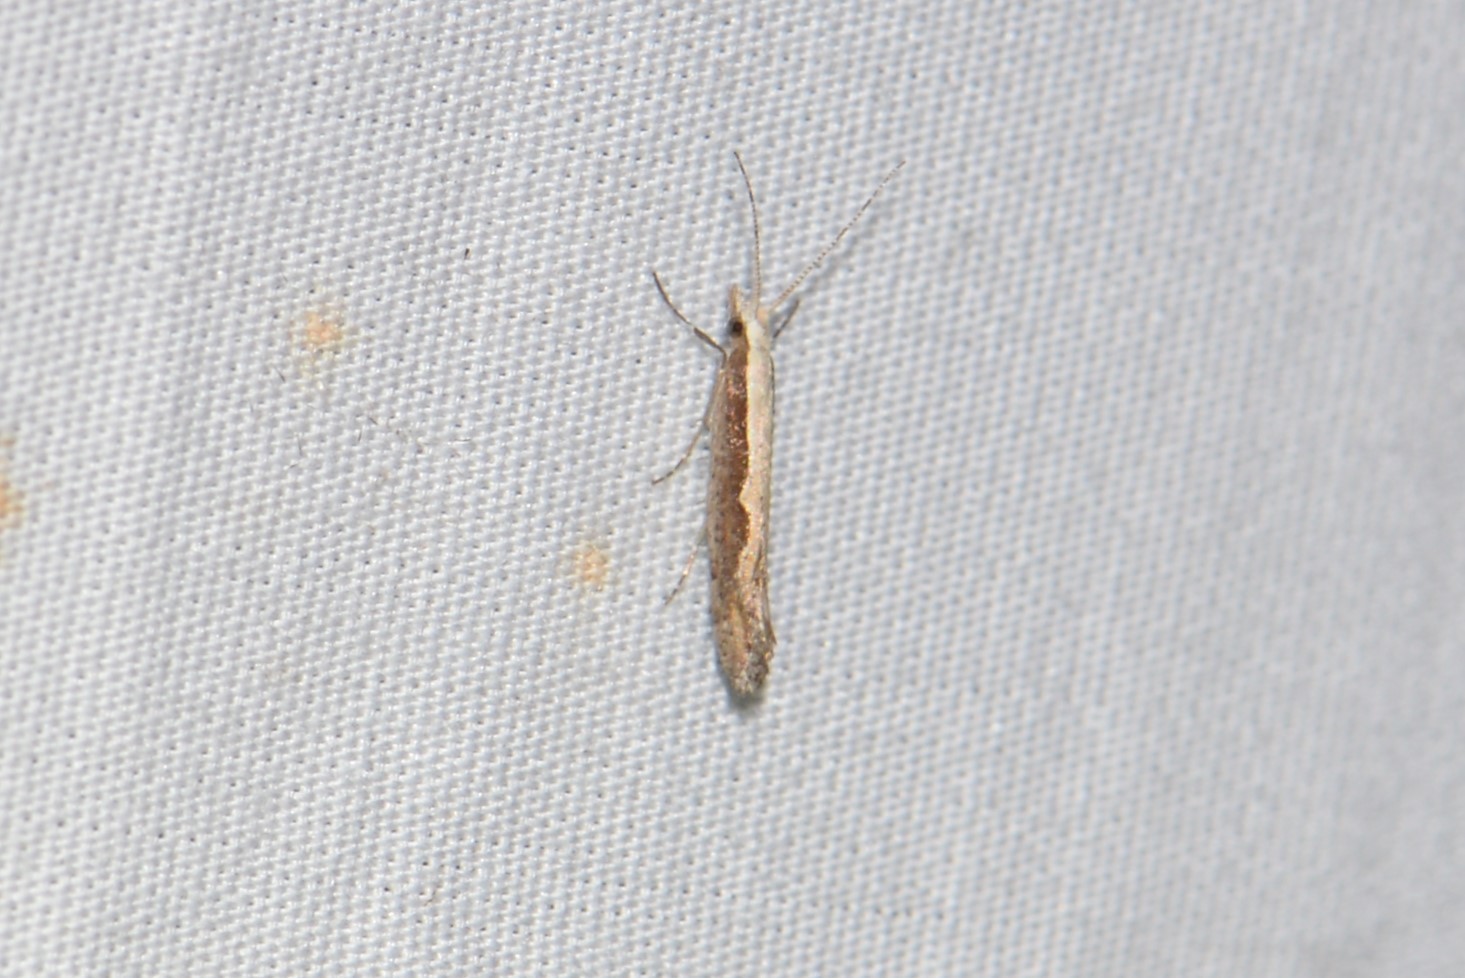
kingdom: Animalia
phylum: Arthropoda
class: Insecta
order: Lepidoptera
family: Plutellidae
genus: Plutella
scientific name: Plutella xylostella
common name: Diamond-back moth
